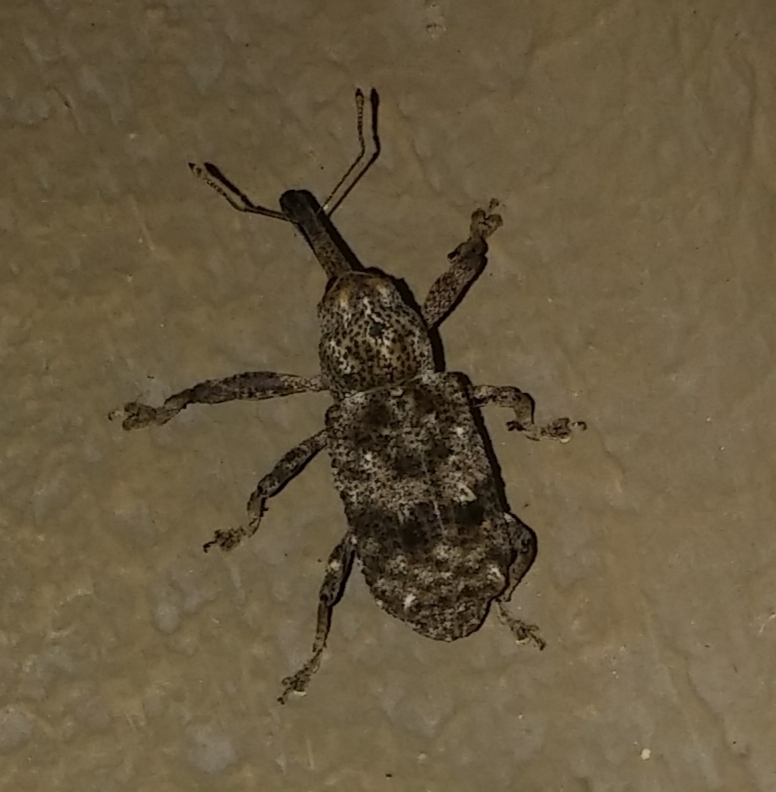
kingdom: Animalia
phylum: Arthropoda
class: Insecta
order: Coleoptera
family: Curculionidae
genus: Orthorhinus
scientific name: Orthorhinus cylindrirostris
